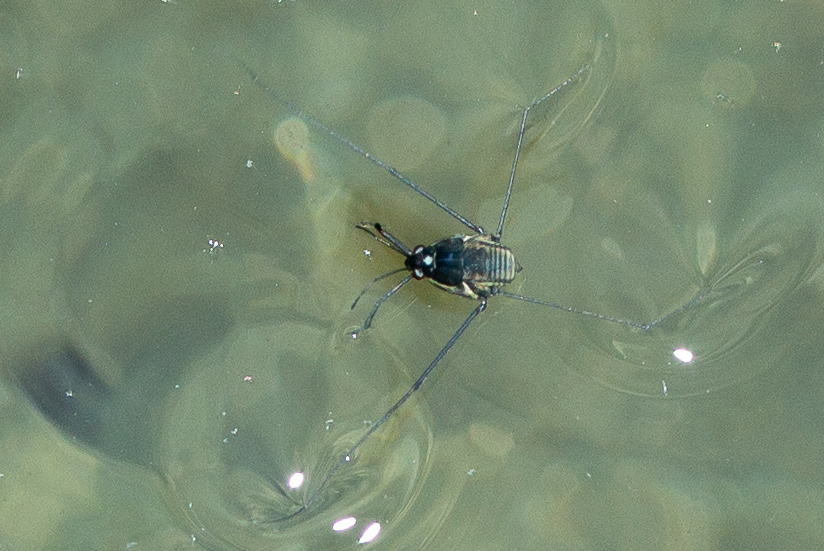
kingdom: Animalia
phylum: Arthropoda
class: Insecta
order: Hemiptera
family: Gerridae
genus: Metrobates
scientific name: Metrobates hesperius
